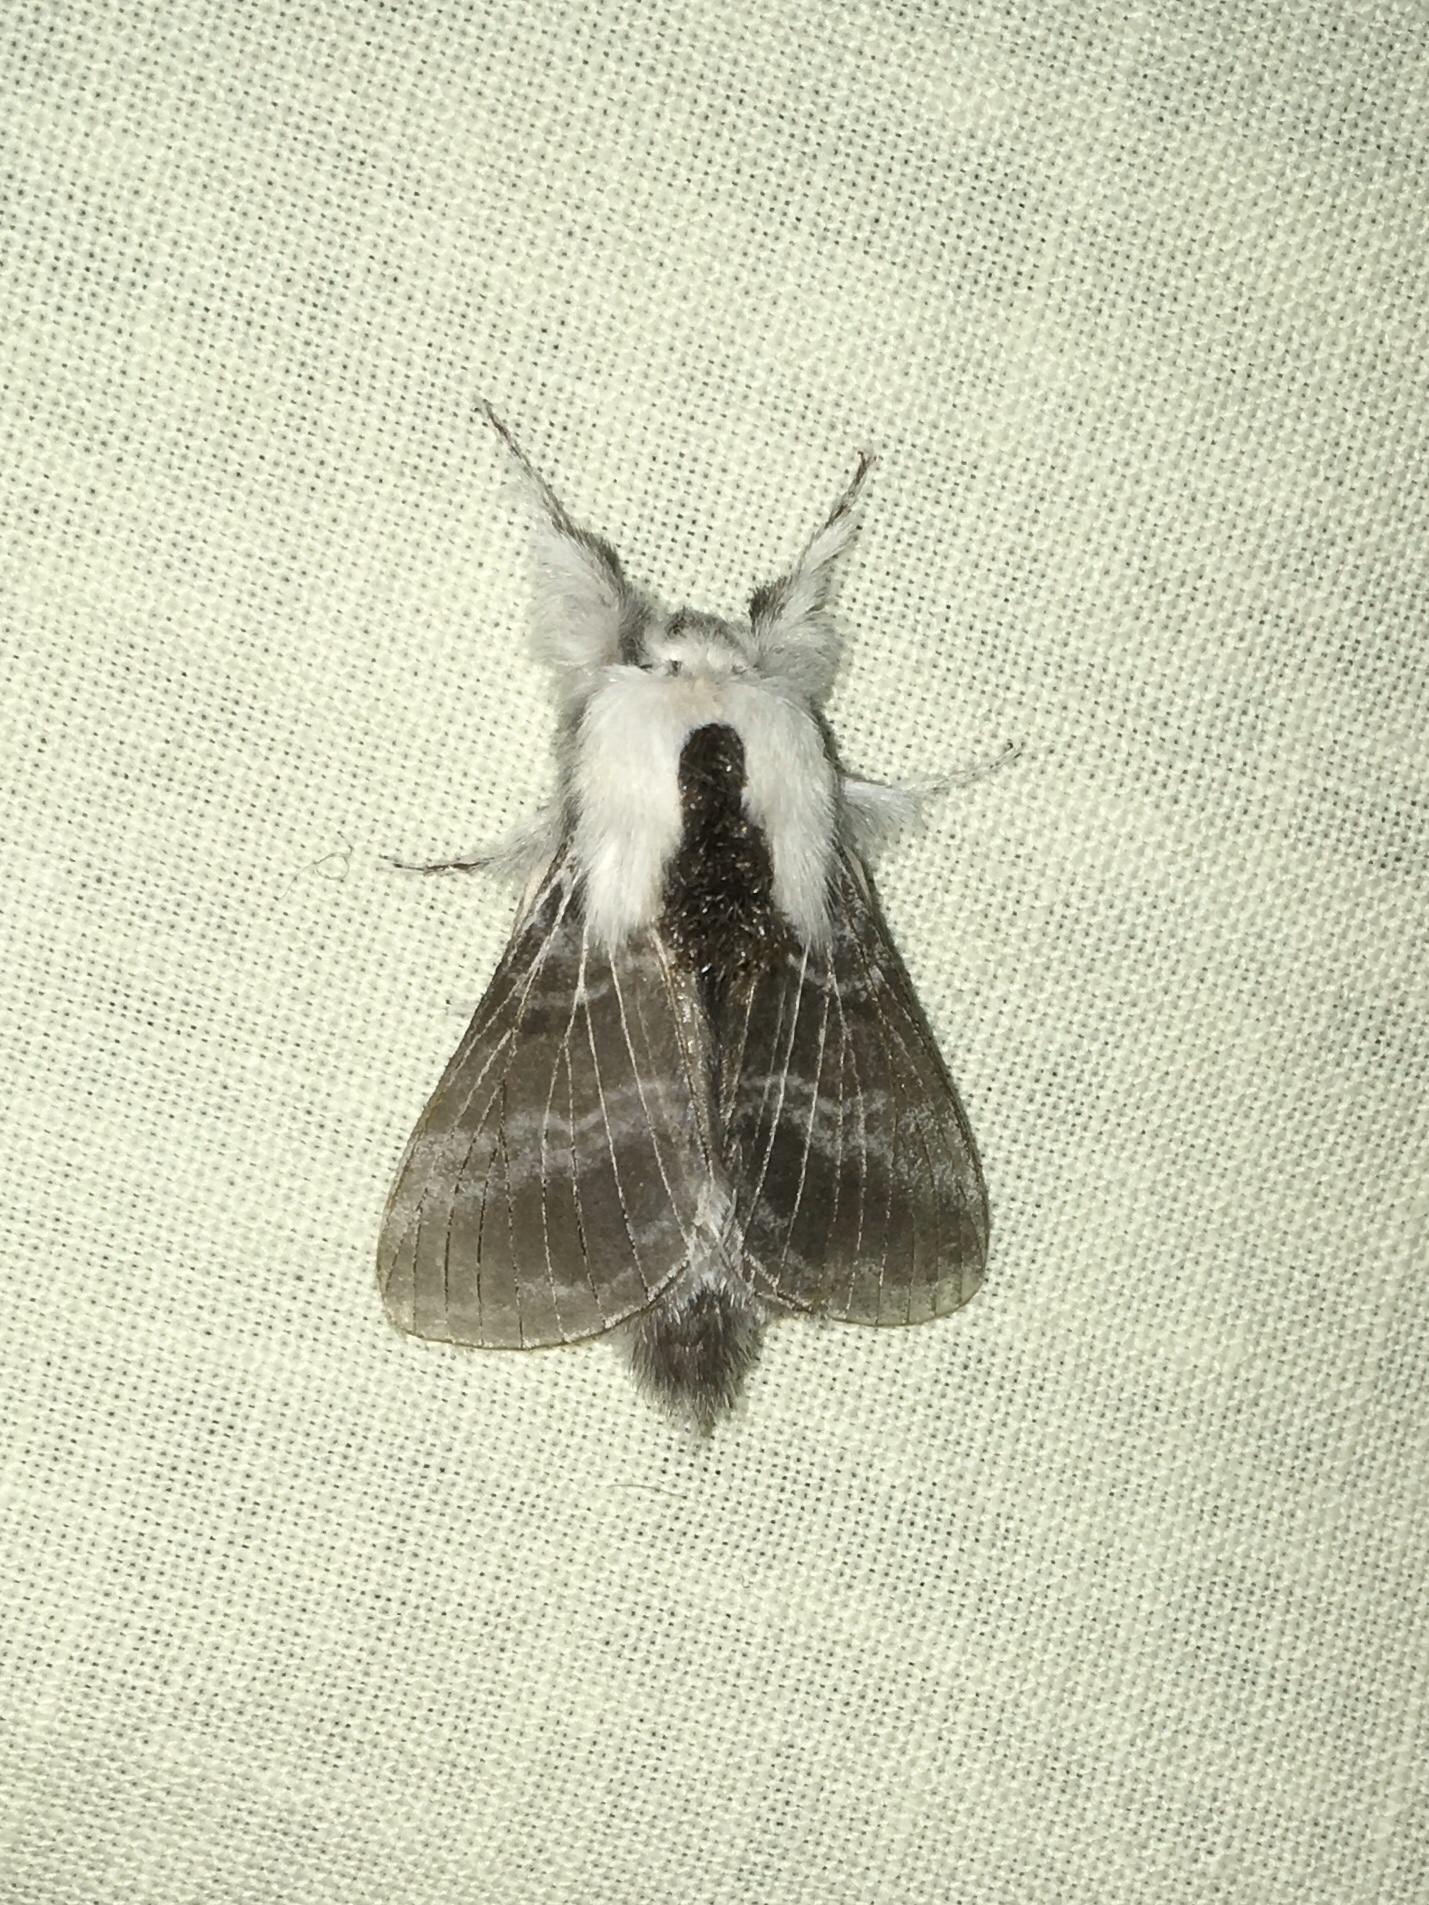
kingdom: Animalia
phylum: Arthropoda
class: Insecta
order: Lepidoptera
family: Lasiocampidae
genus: Tolype
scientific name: Tolype velleda
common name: Large tolype moth
